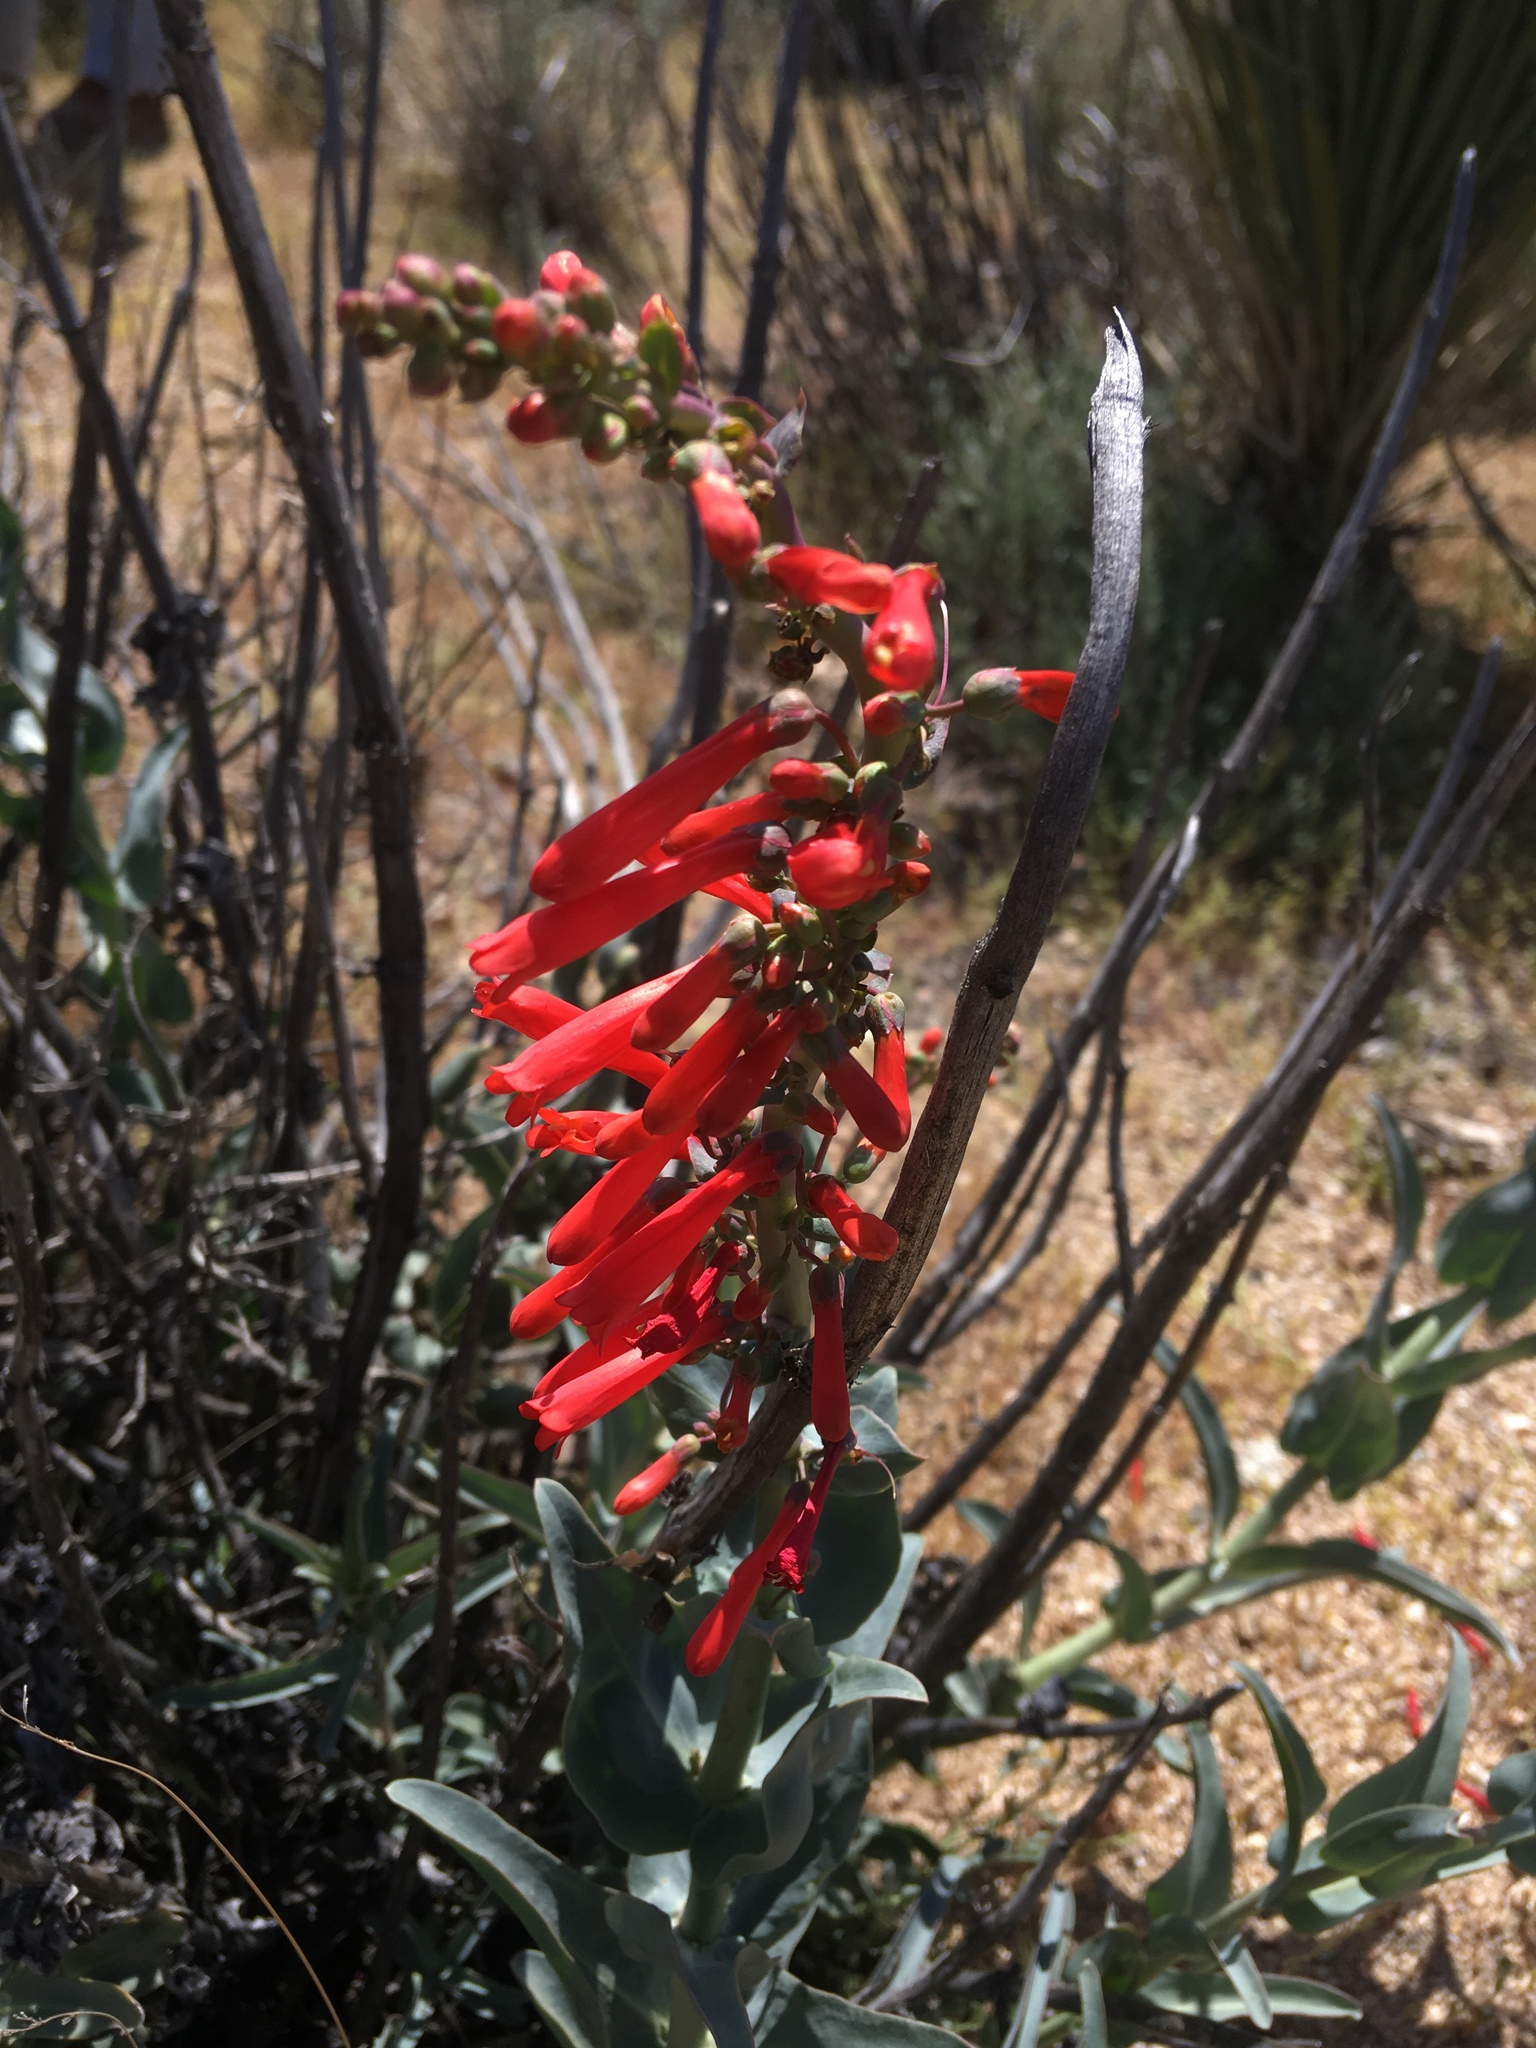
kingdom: Plantae
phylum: Tracheophyta
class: Magnoliopsida
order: Lamiales
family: Plantaginaceae
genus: Penstemon
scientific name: Penstemon centranthifolius
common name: Scarlet bugler
